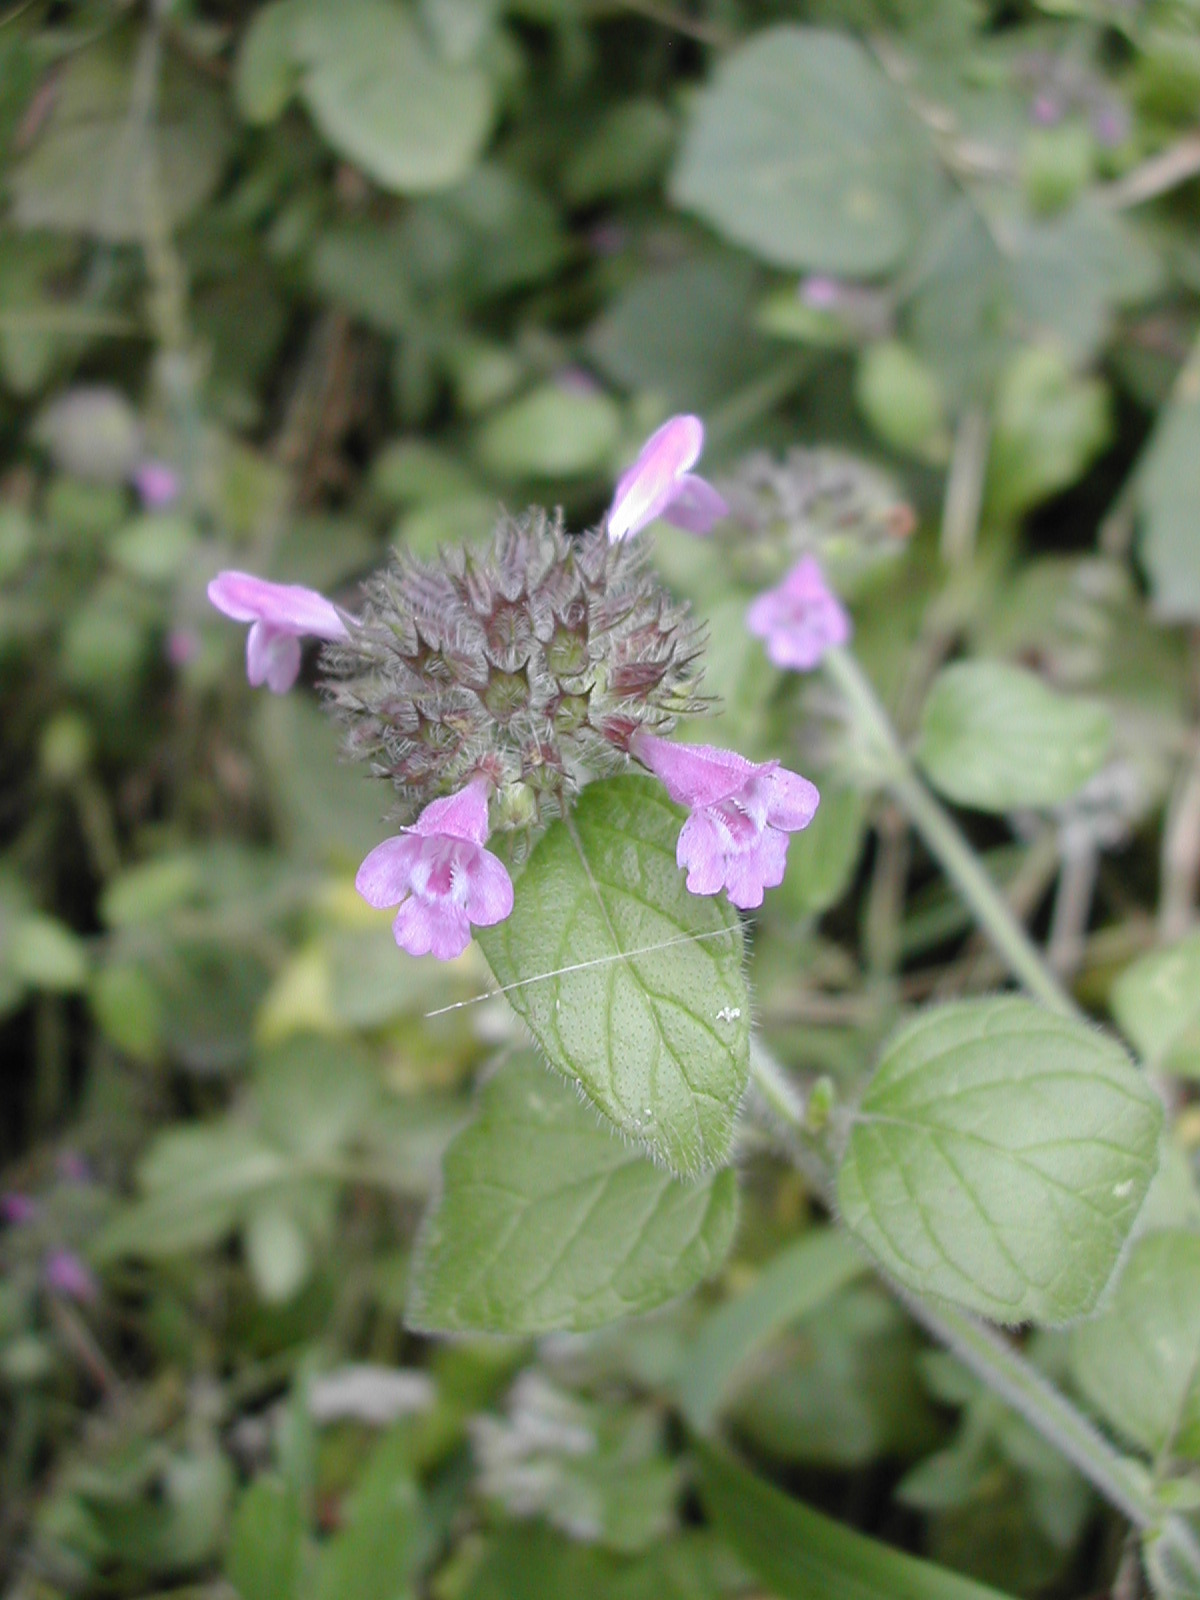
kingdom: Plantae
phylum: Tracheophyta
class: Magnoliopsida
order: Lamiales
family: Lamiaceae
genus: Clinopodium
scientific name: Clinopodium vulgare
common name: Wild basil
